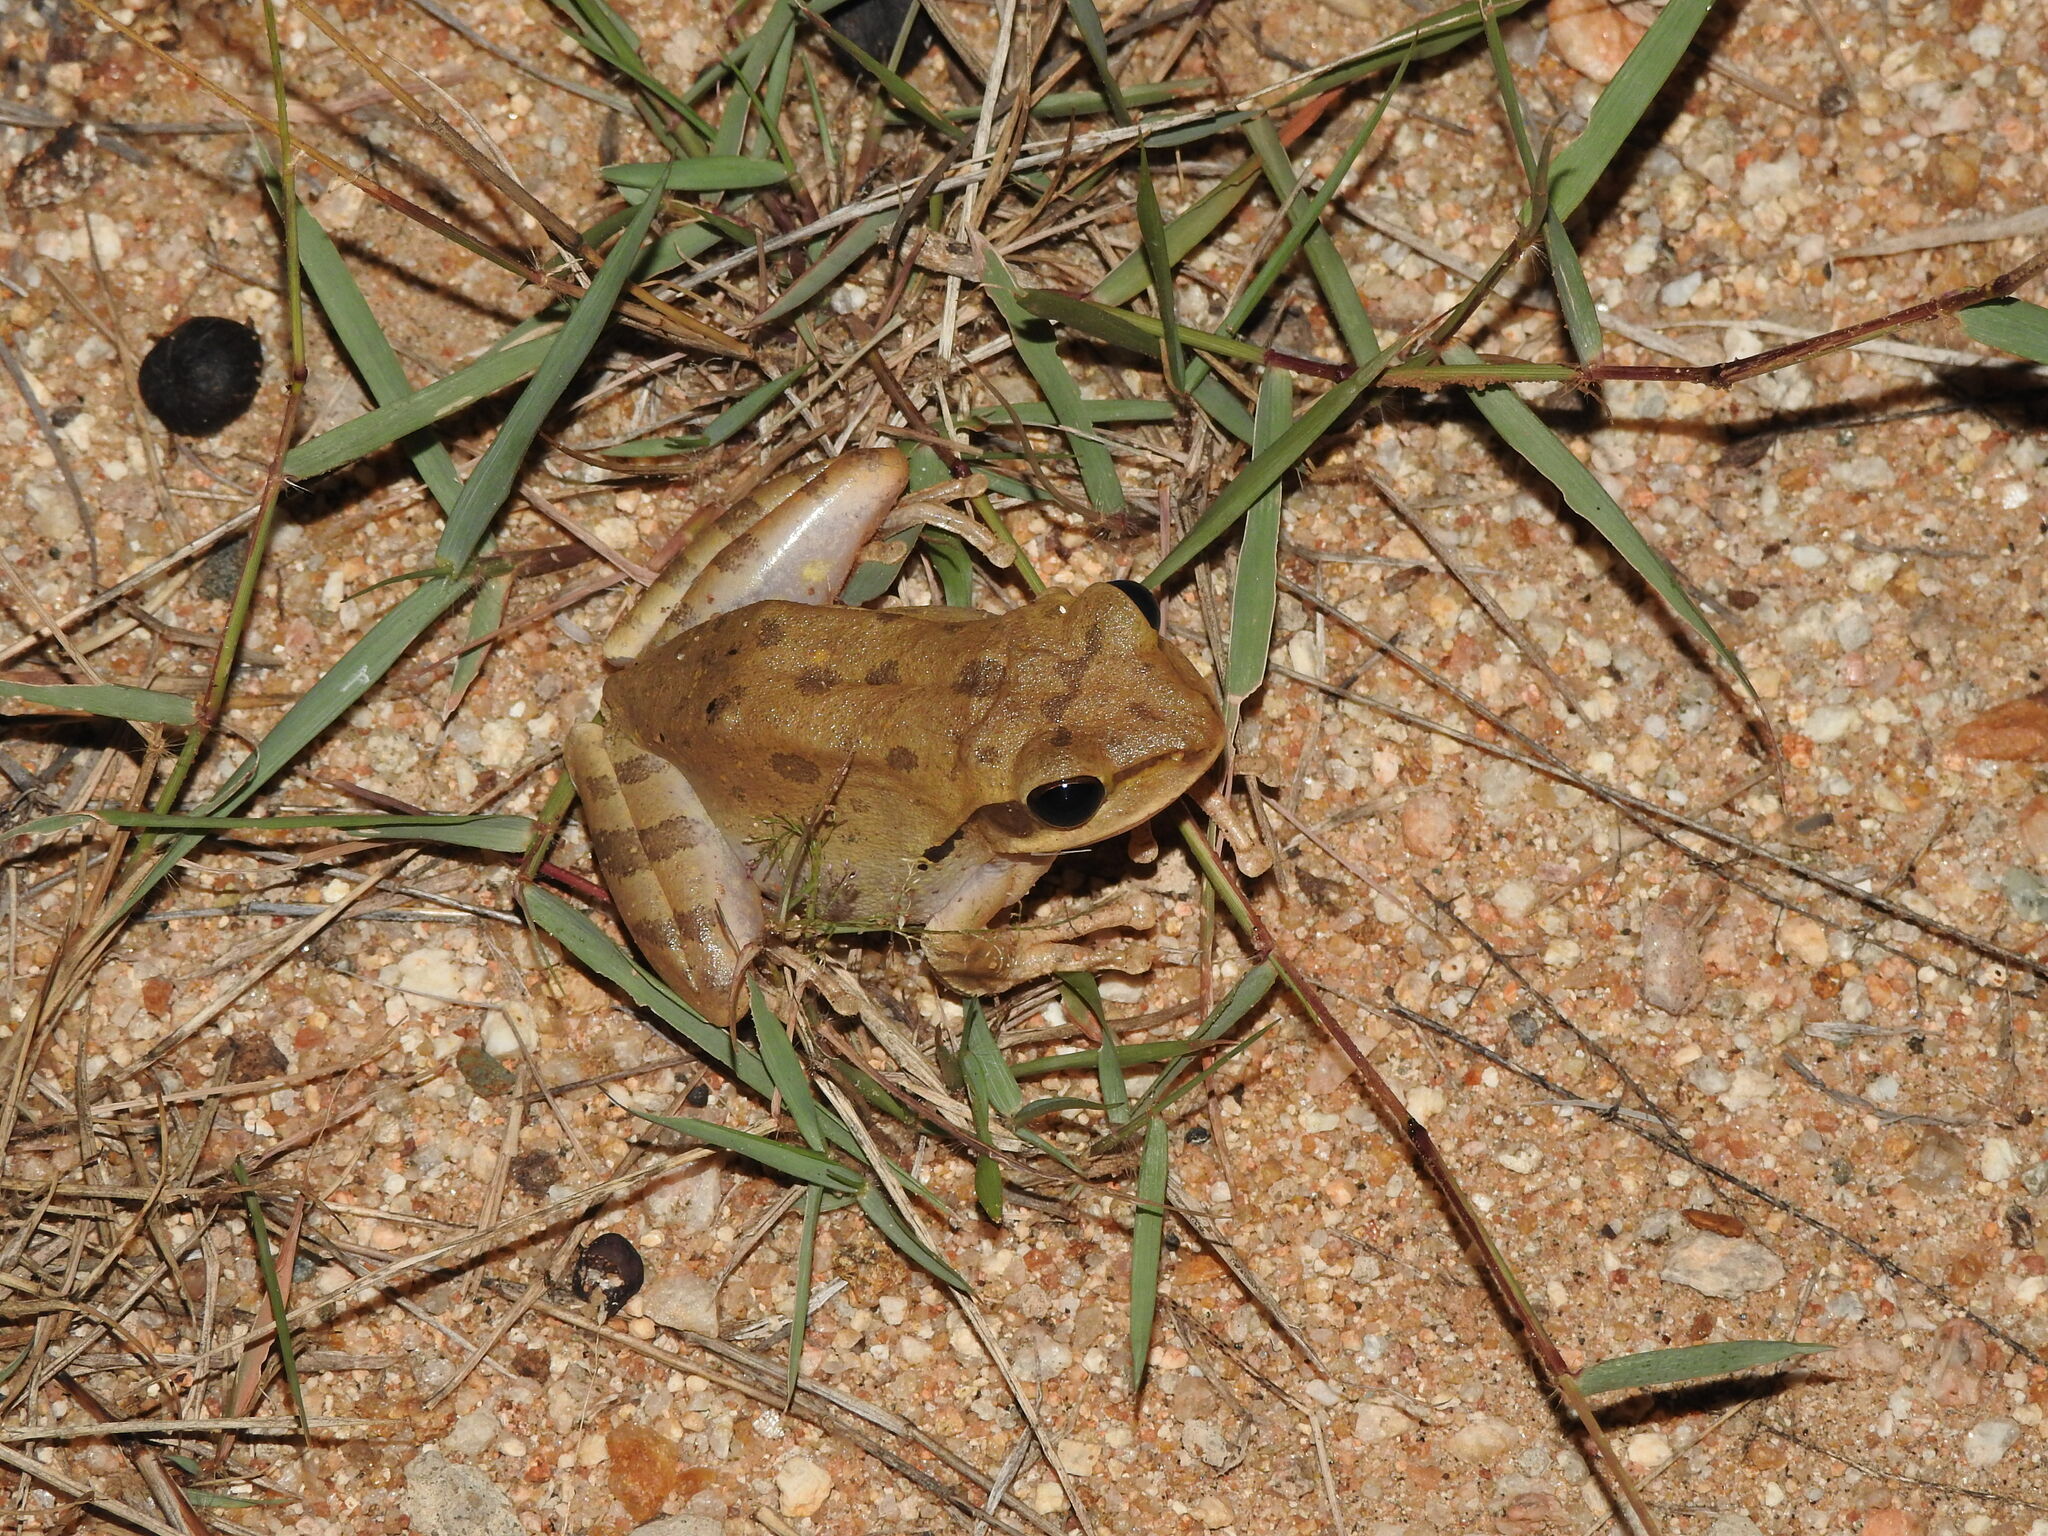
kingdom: Animalia
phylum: Chordata
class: Amphibia
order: Anura
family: Rhacophoridae
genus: Polypedates
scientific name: Polypedates maculatus
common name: Himalayan tree frog
